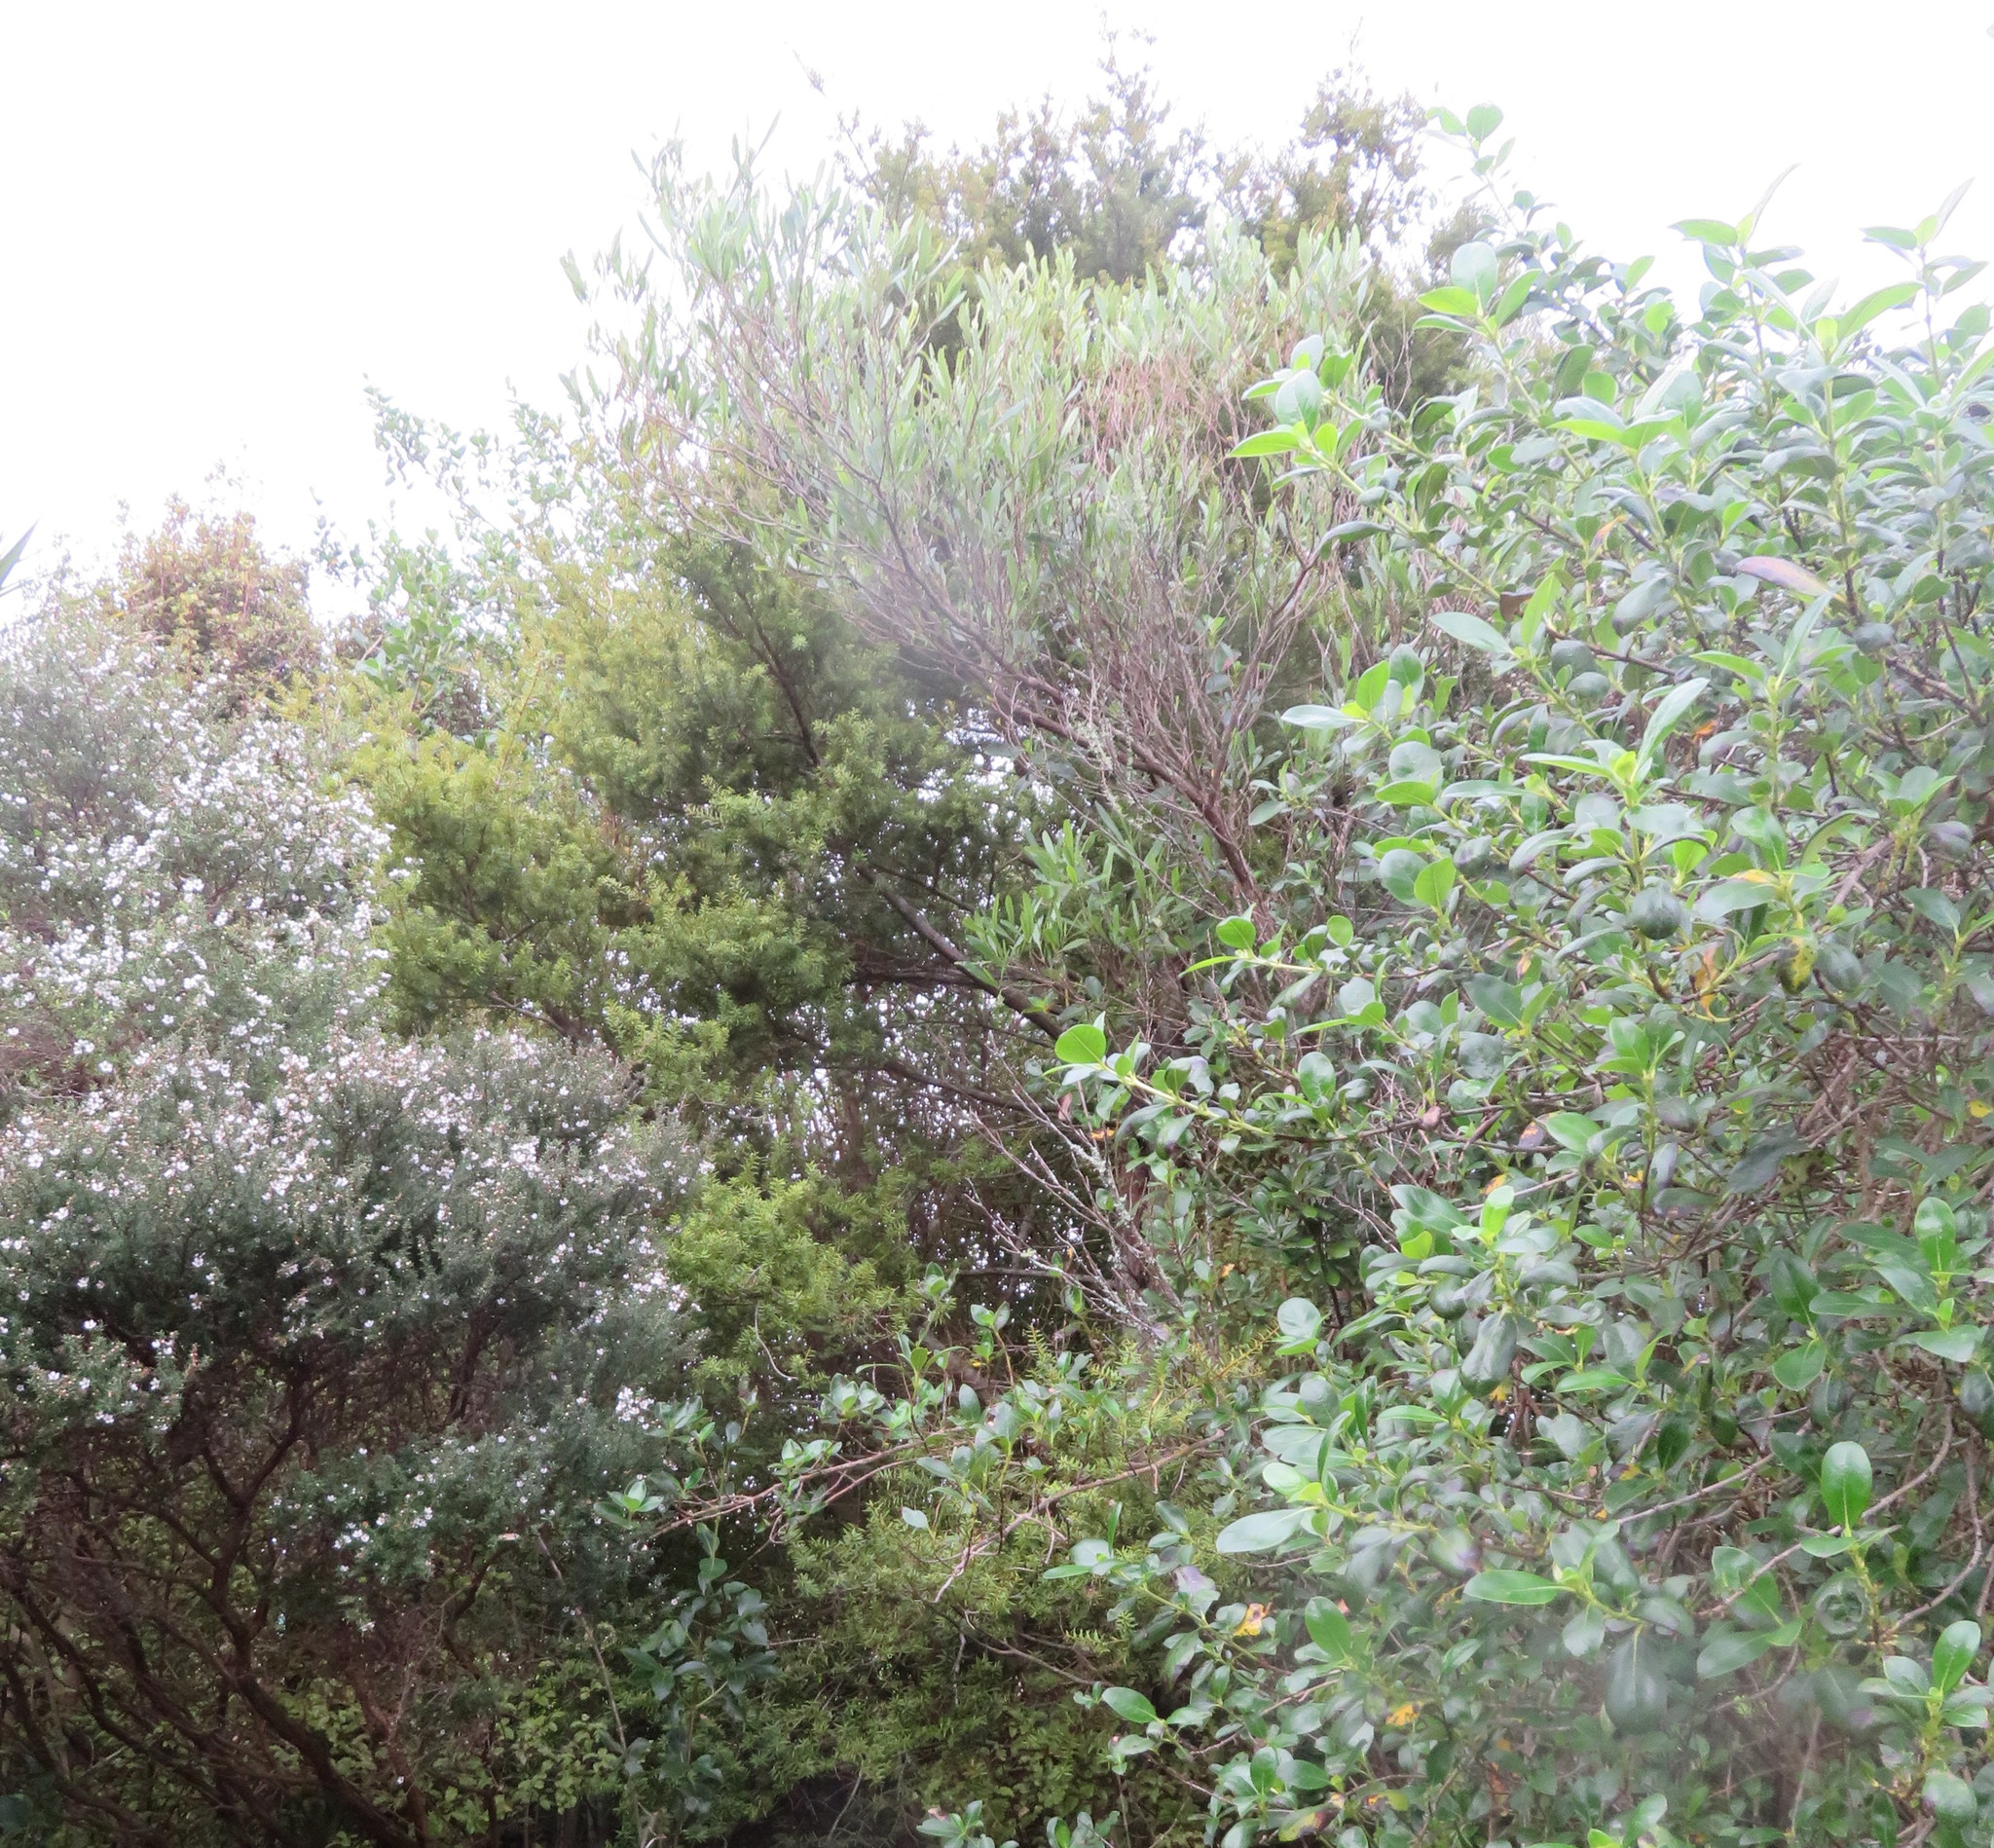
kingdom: Plantae
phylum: Tracheophyta
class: Magnoliopsida
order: Sapindales
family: Sapindaceae
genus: Dodonaea
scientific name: Dodonaea viscosa
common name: Hopbush
